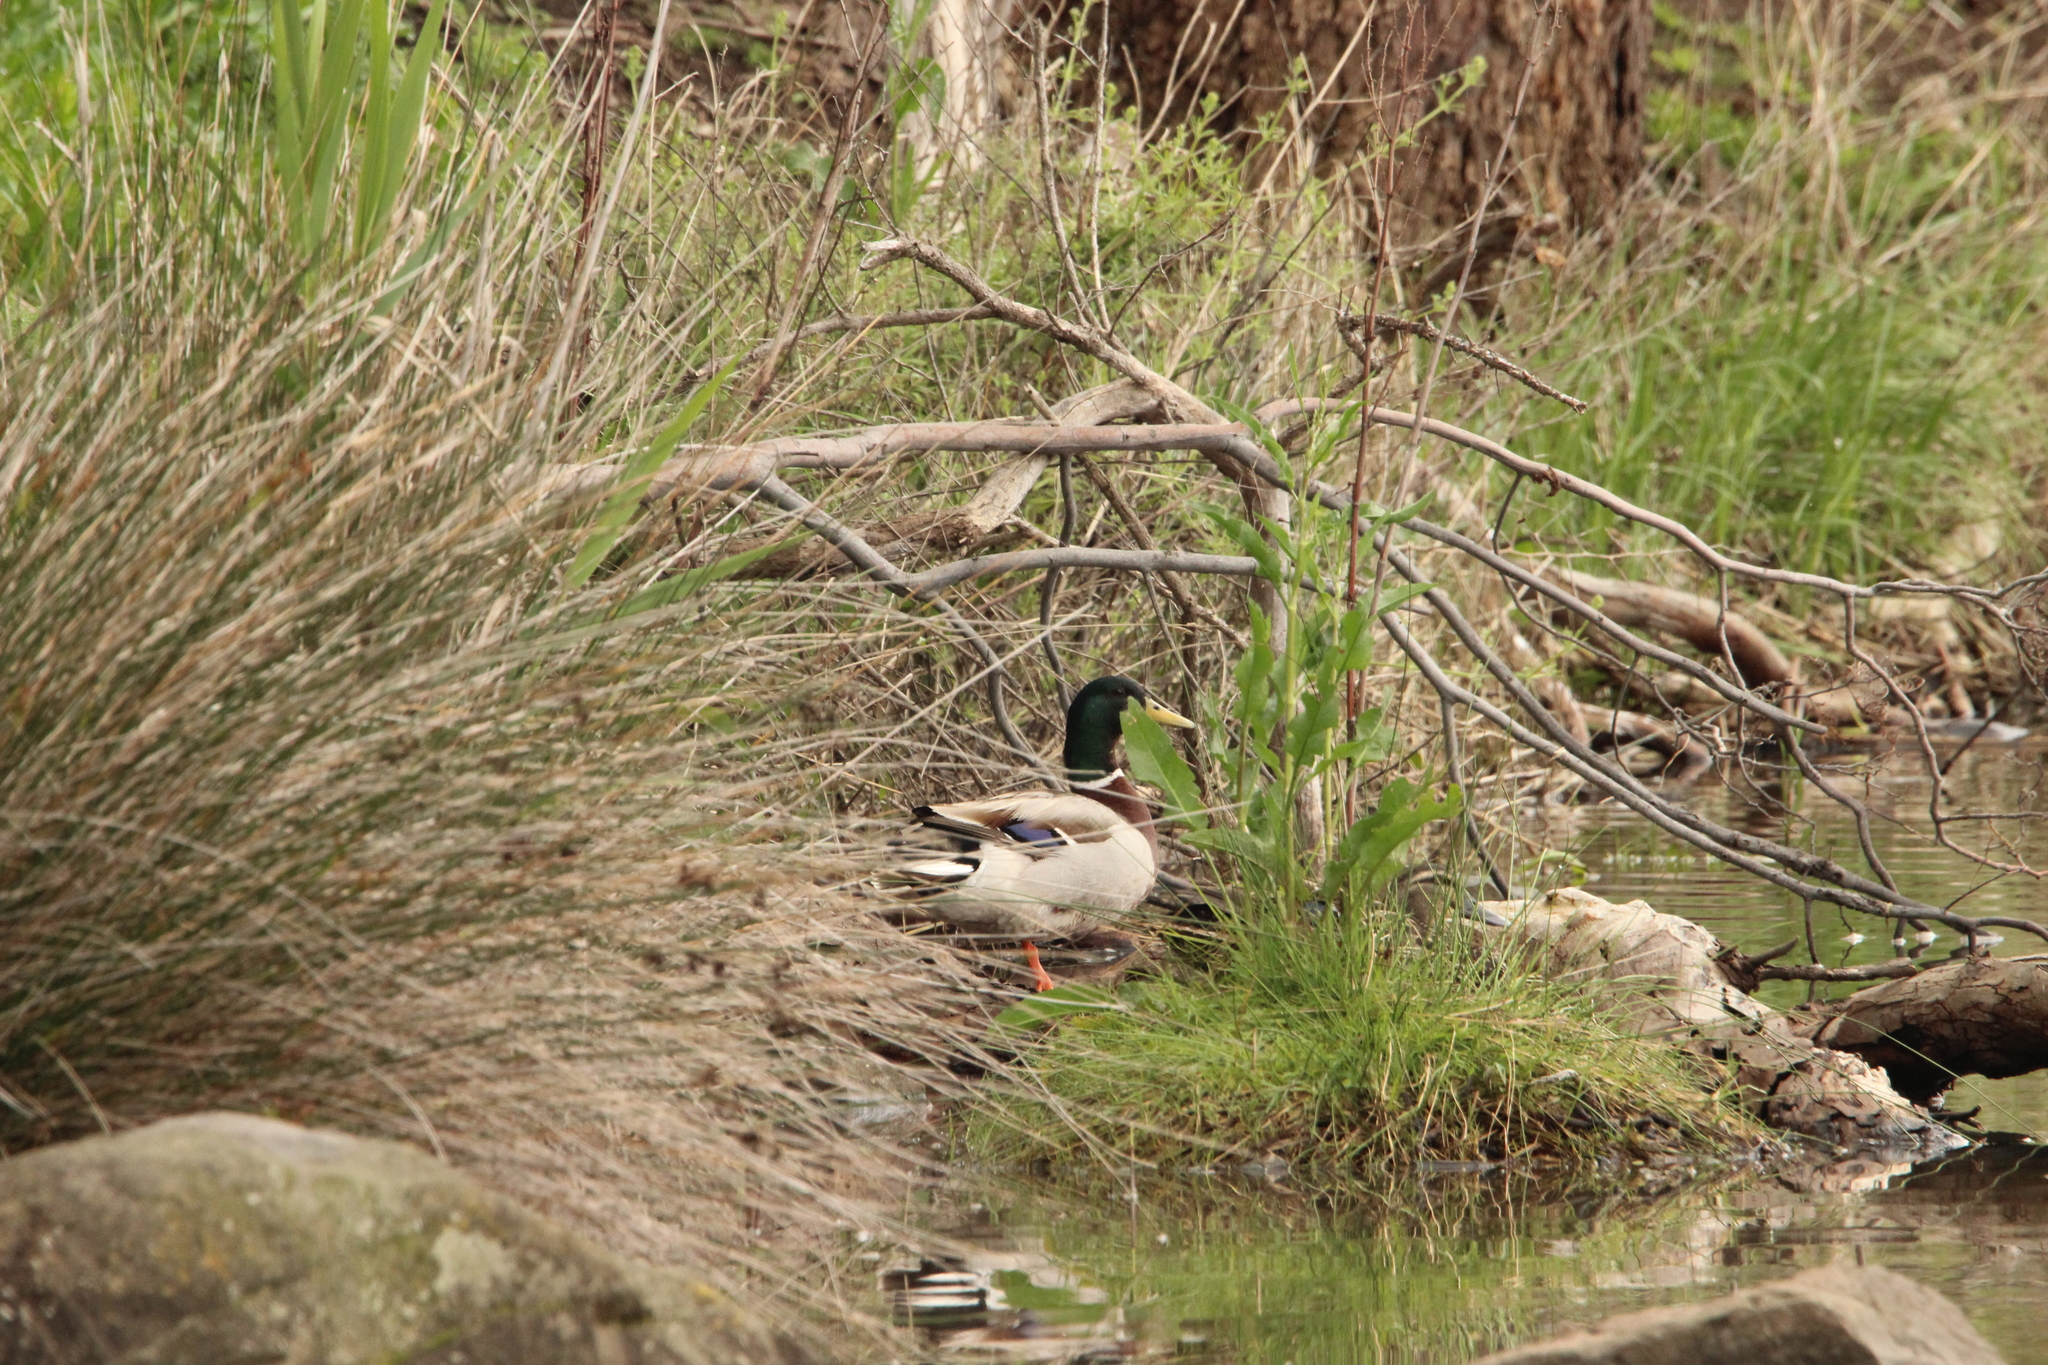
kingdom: Animalia
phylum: Chordata
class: Aves
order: Anseriformes
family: Anatidae
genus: Anas
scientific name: Anas platyrhynchos
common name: Mallard
